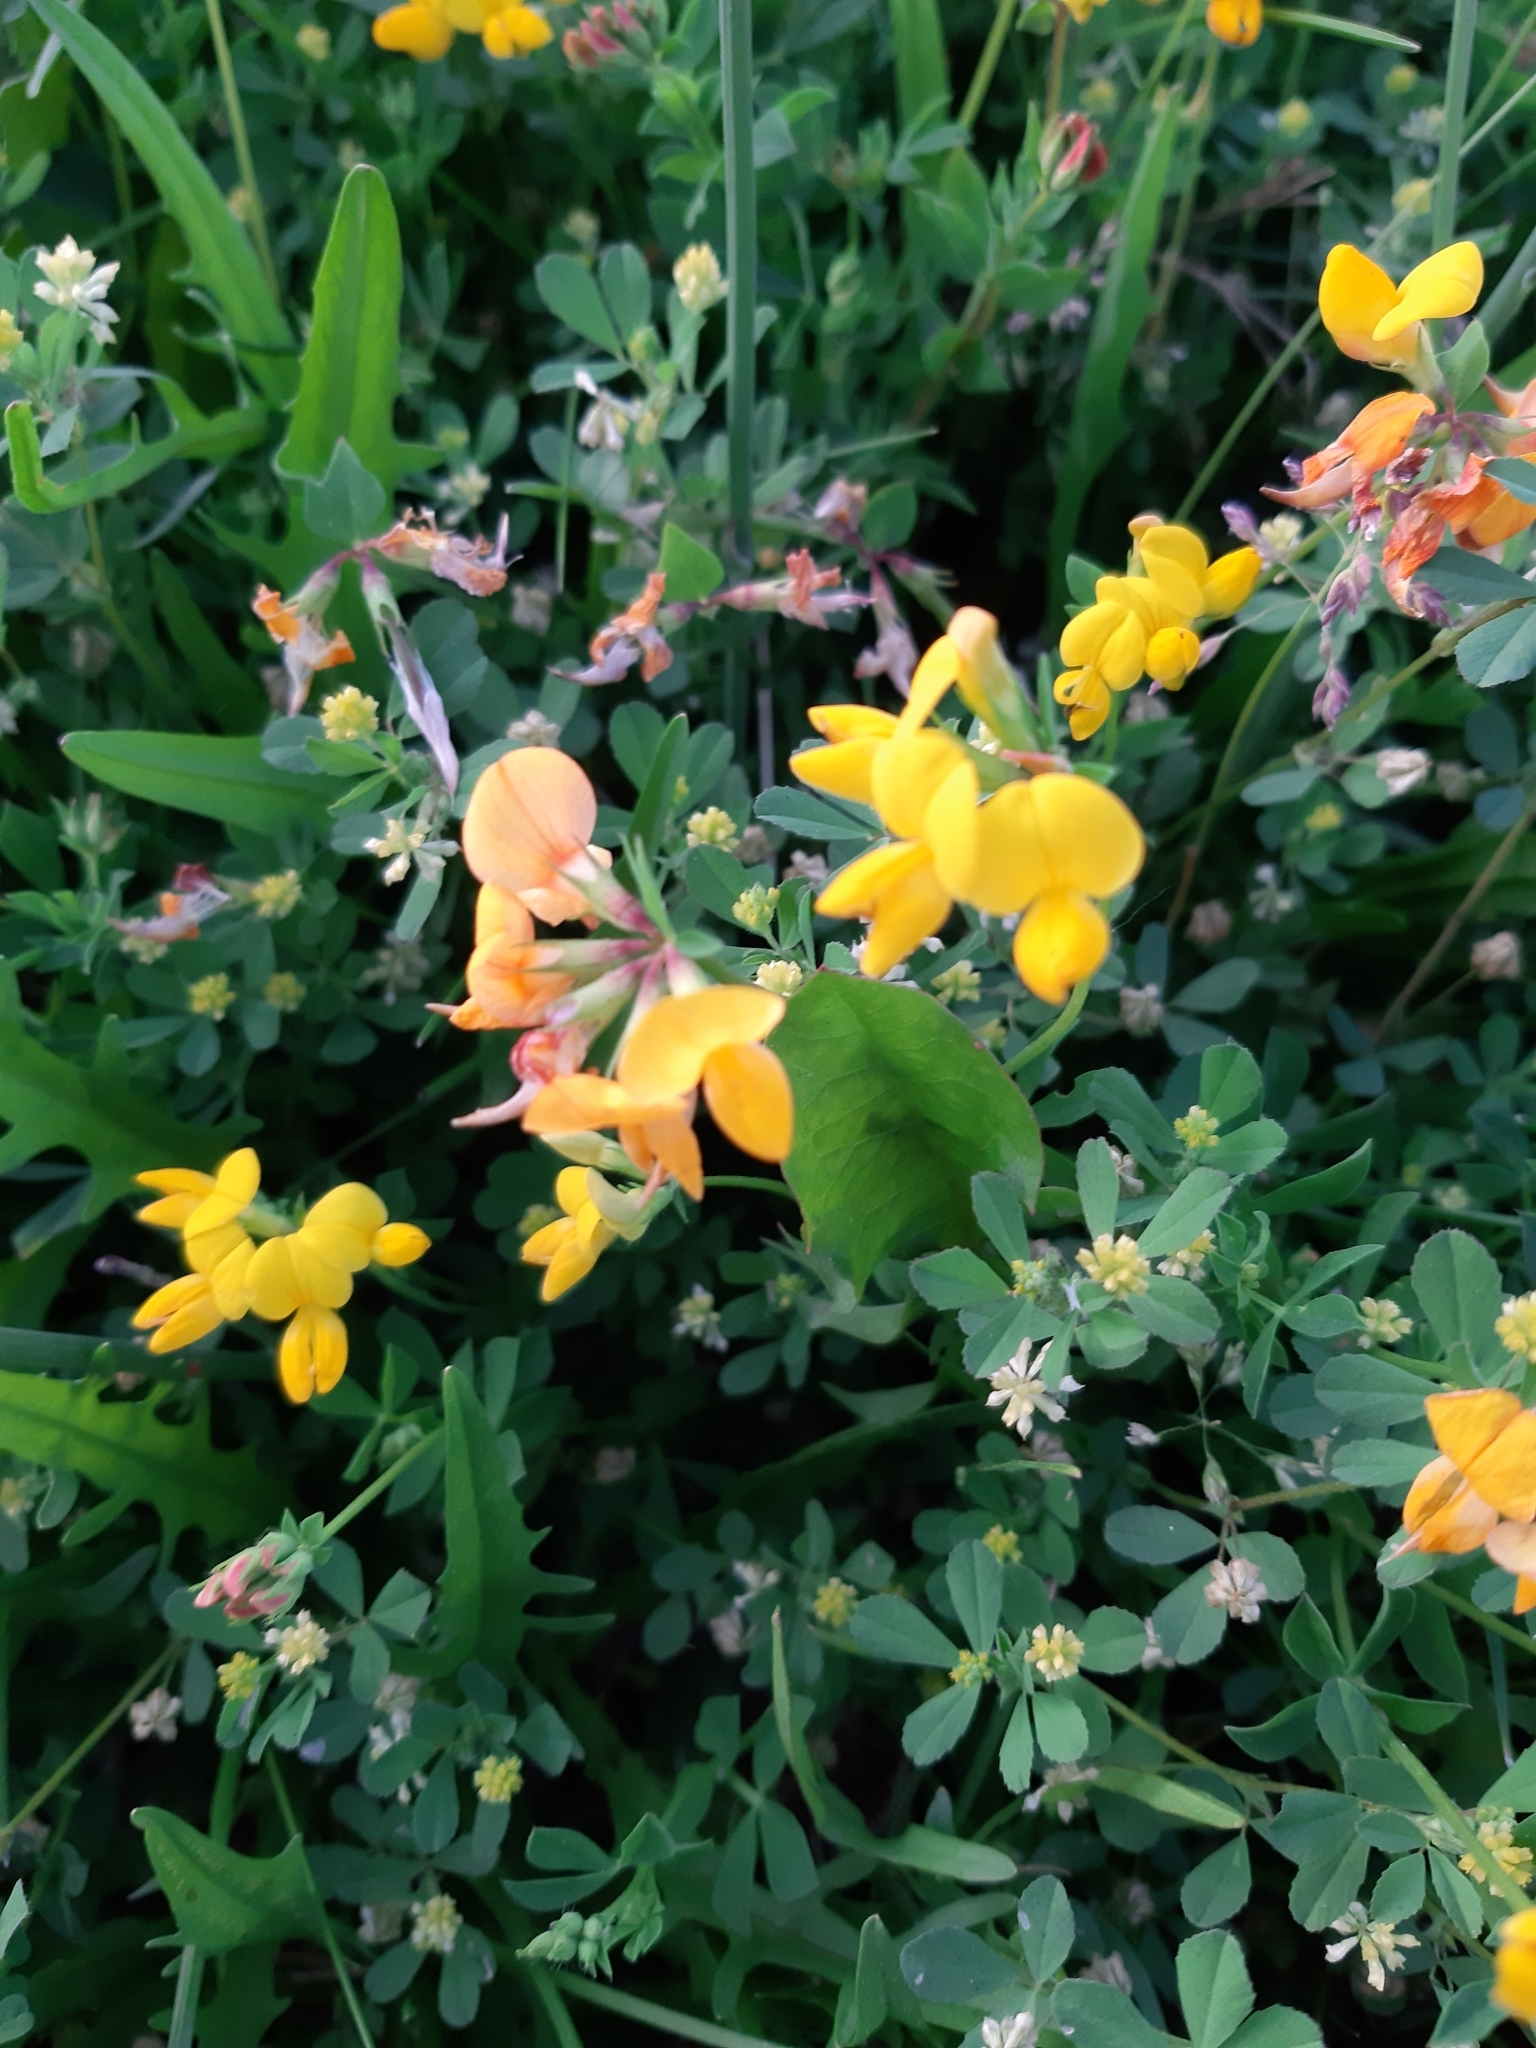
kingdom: Plantae
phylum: Tracheophyta
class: Magnoliopsida
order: Fabales
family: Fabaceae
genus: Lotus
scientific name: Lotus corniculatus
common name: Common bird's-foot-trefoil
